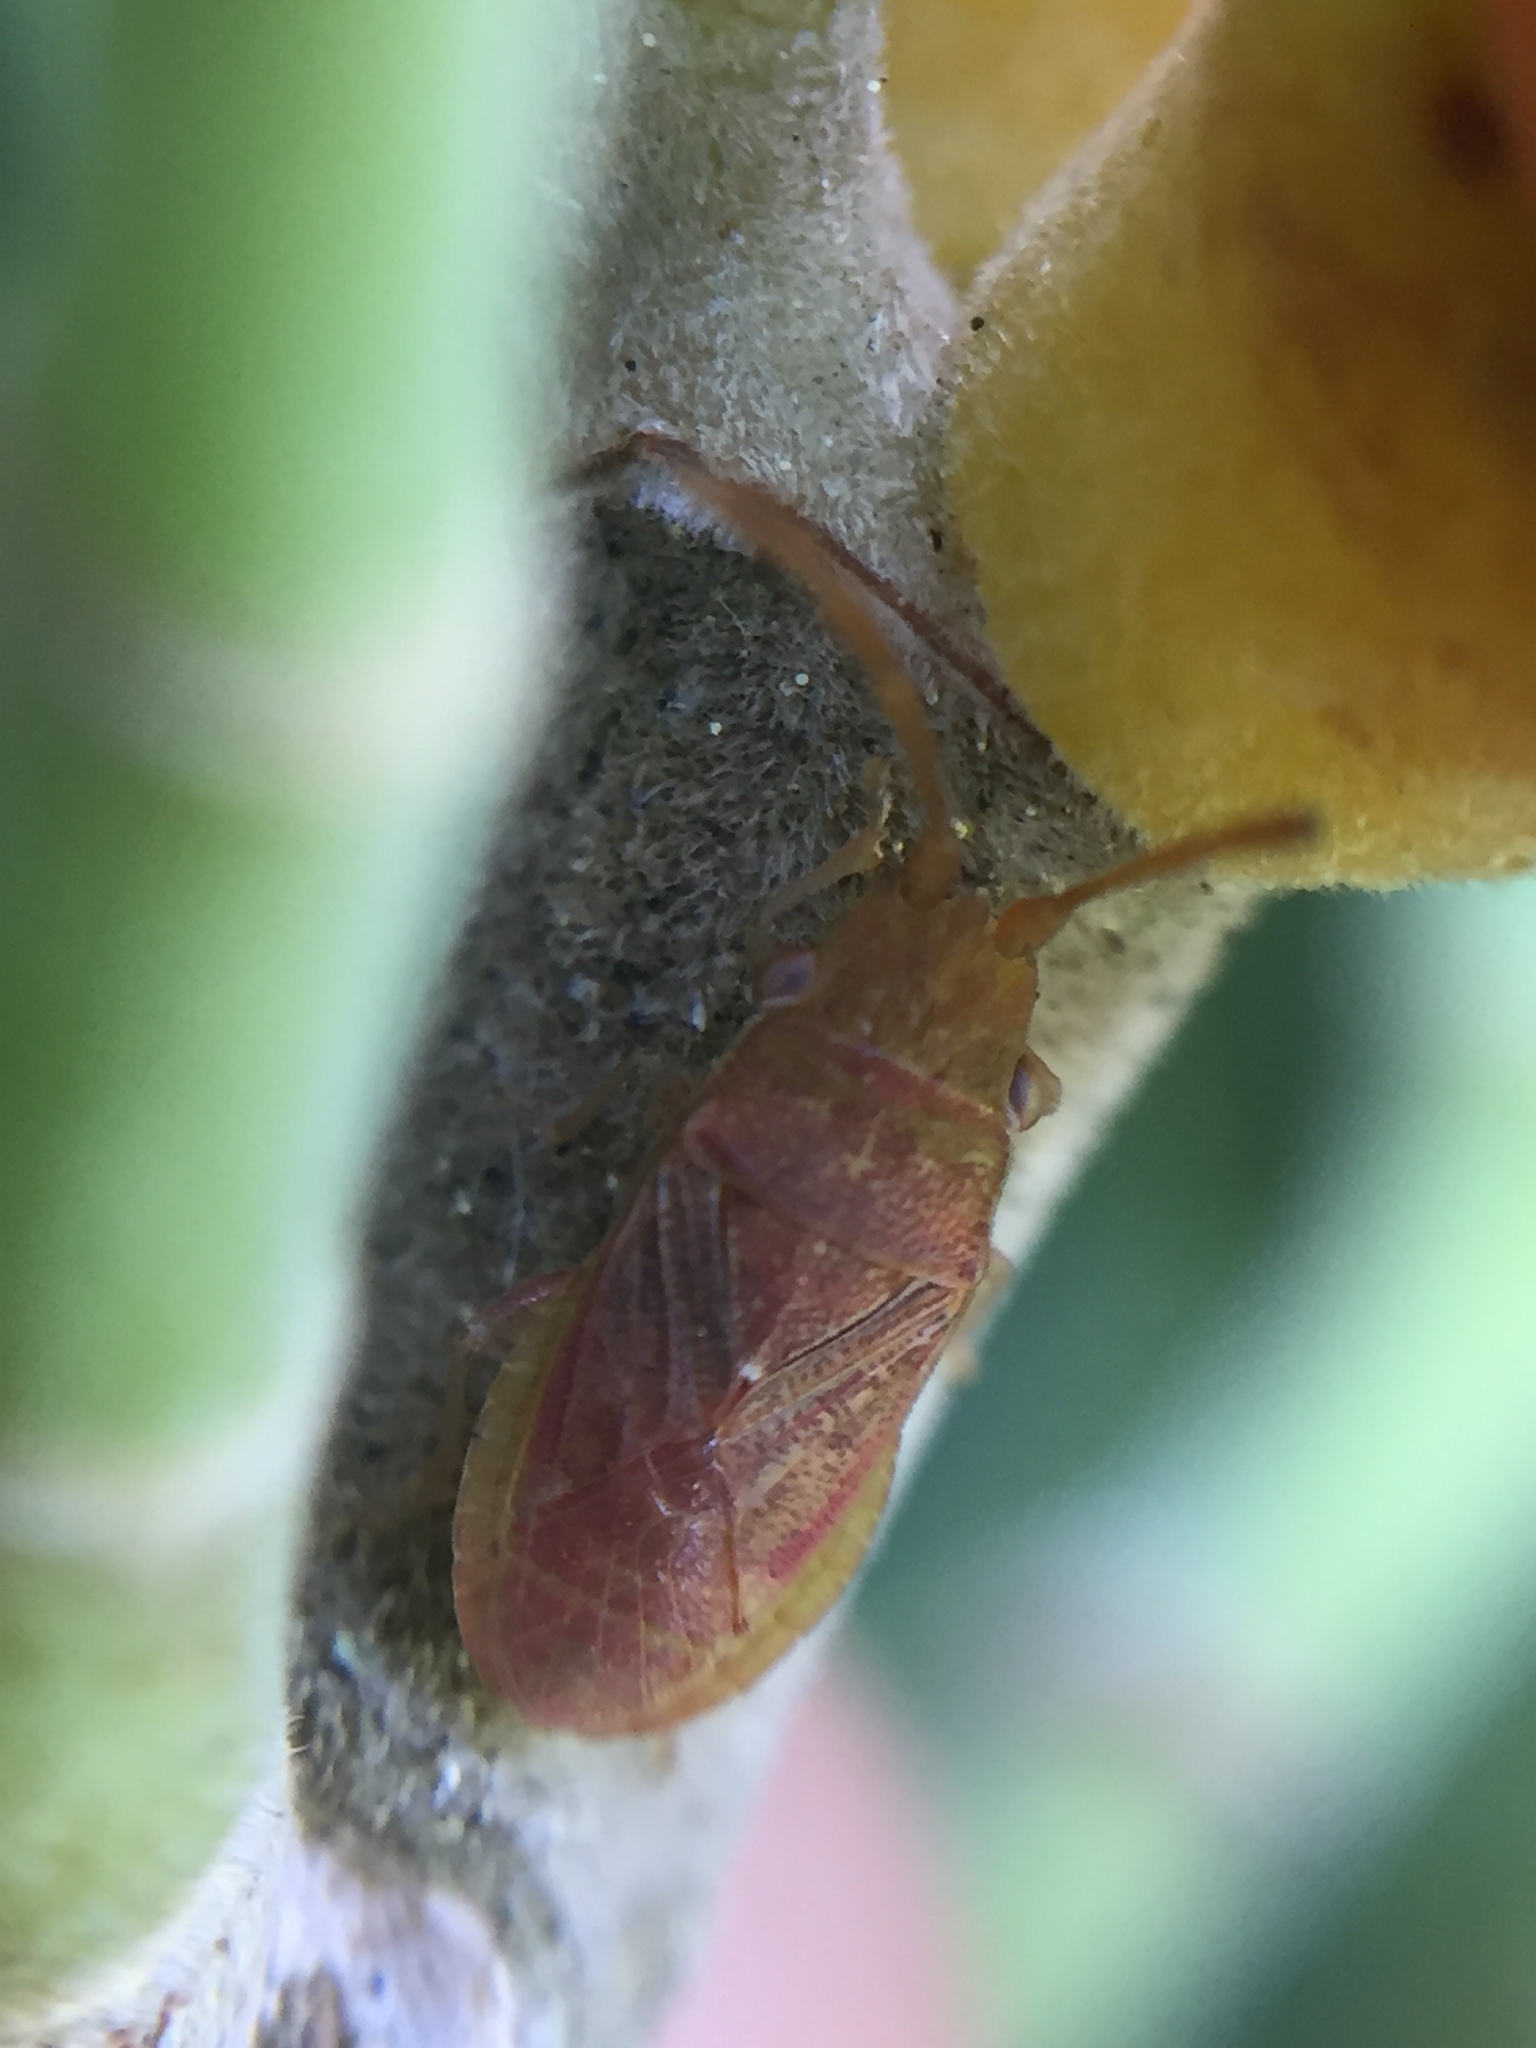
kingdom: Animalia
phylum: Arthropoda
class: Insecta
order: Hemiptera
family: Meschiidae
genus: Meschia
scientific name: Meschia barrowensis
